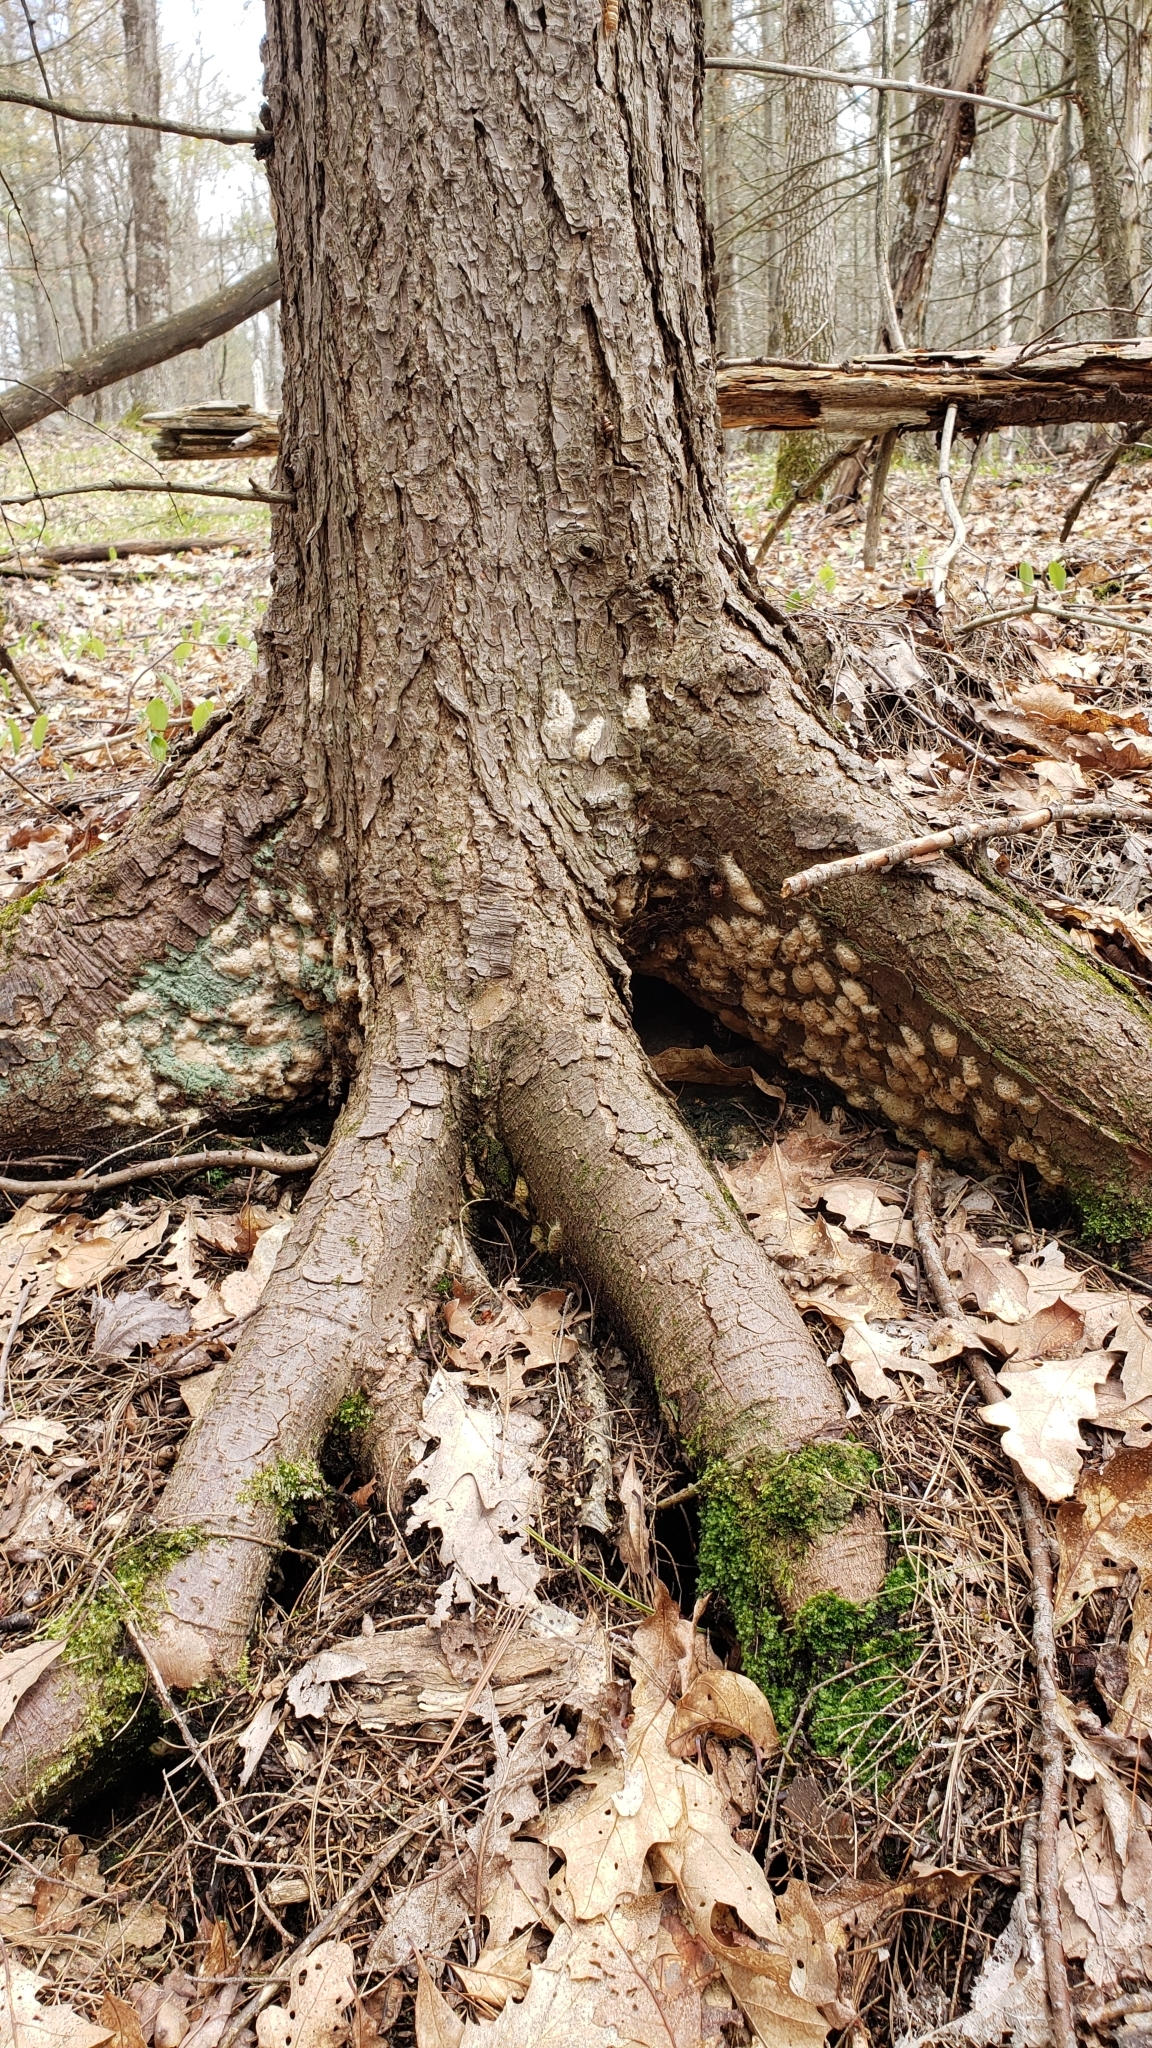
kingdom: Animalia
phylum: Arthropoda
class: Insecta
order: Lepidoptera
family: Erebidae
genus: Lymantria
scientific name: Lymantria dispar
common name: Gypsy moth
